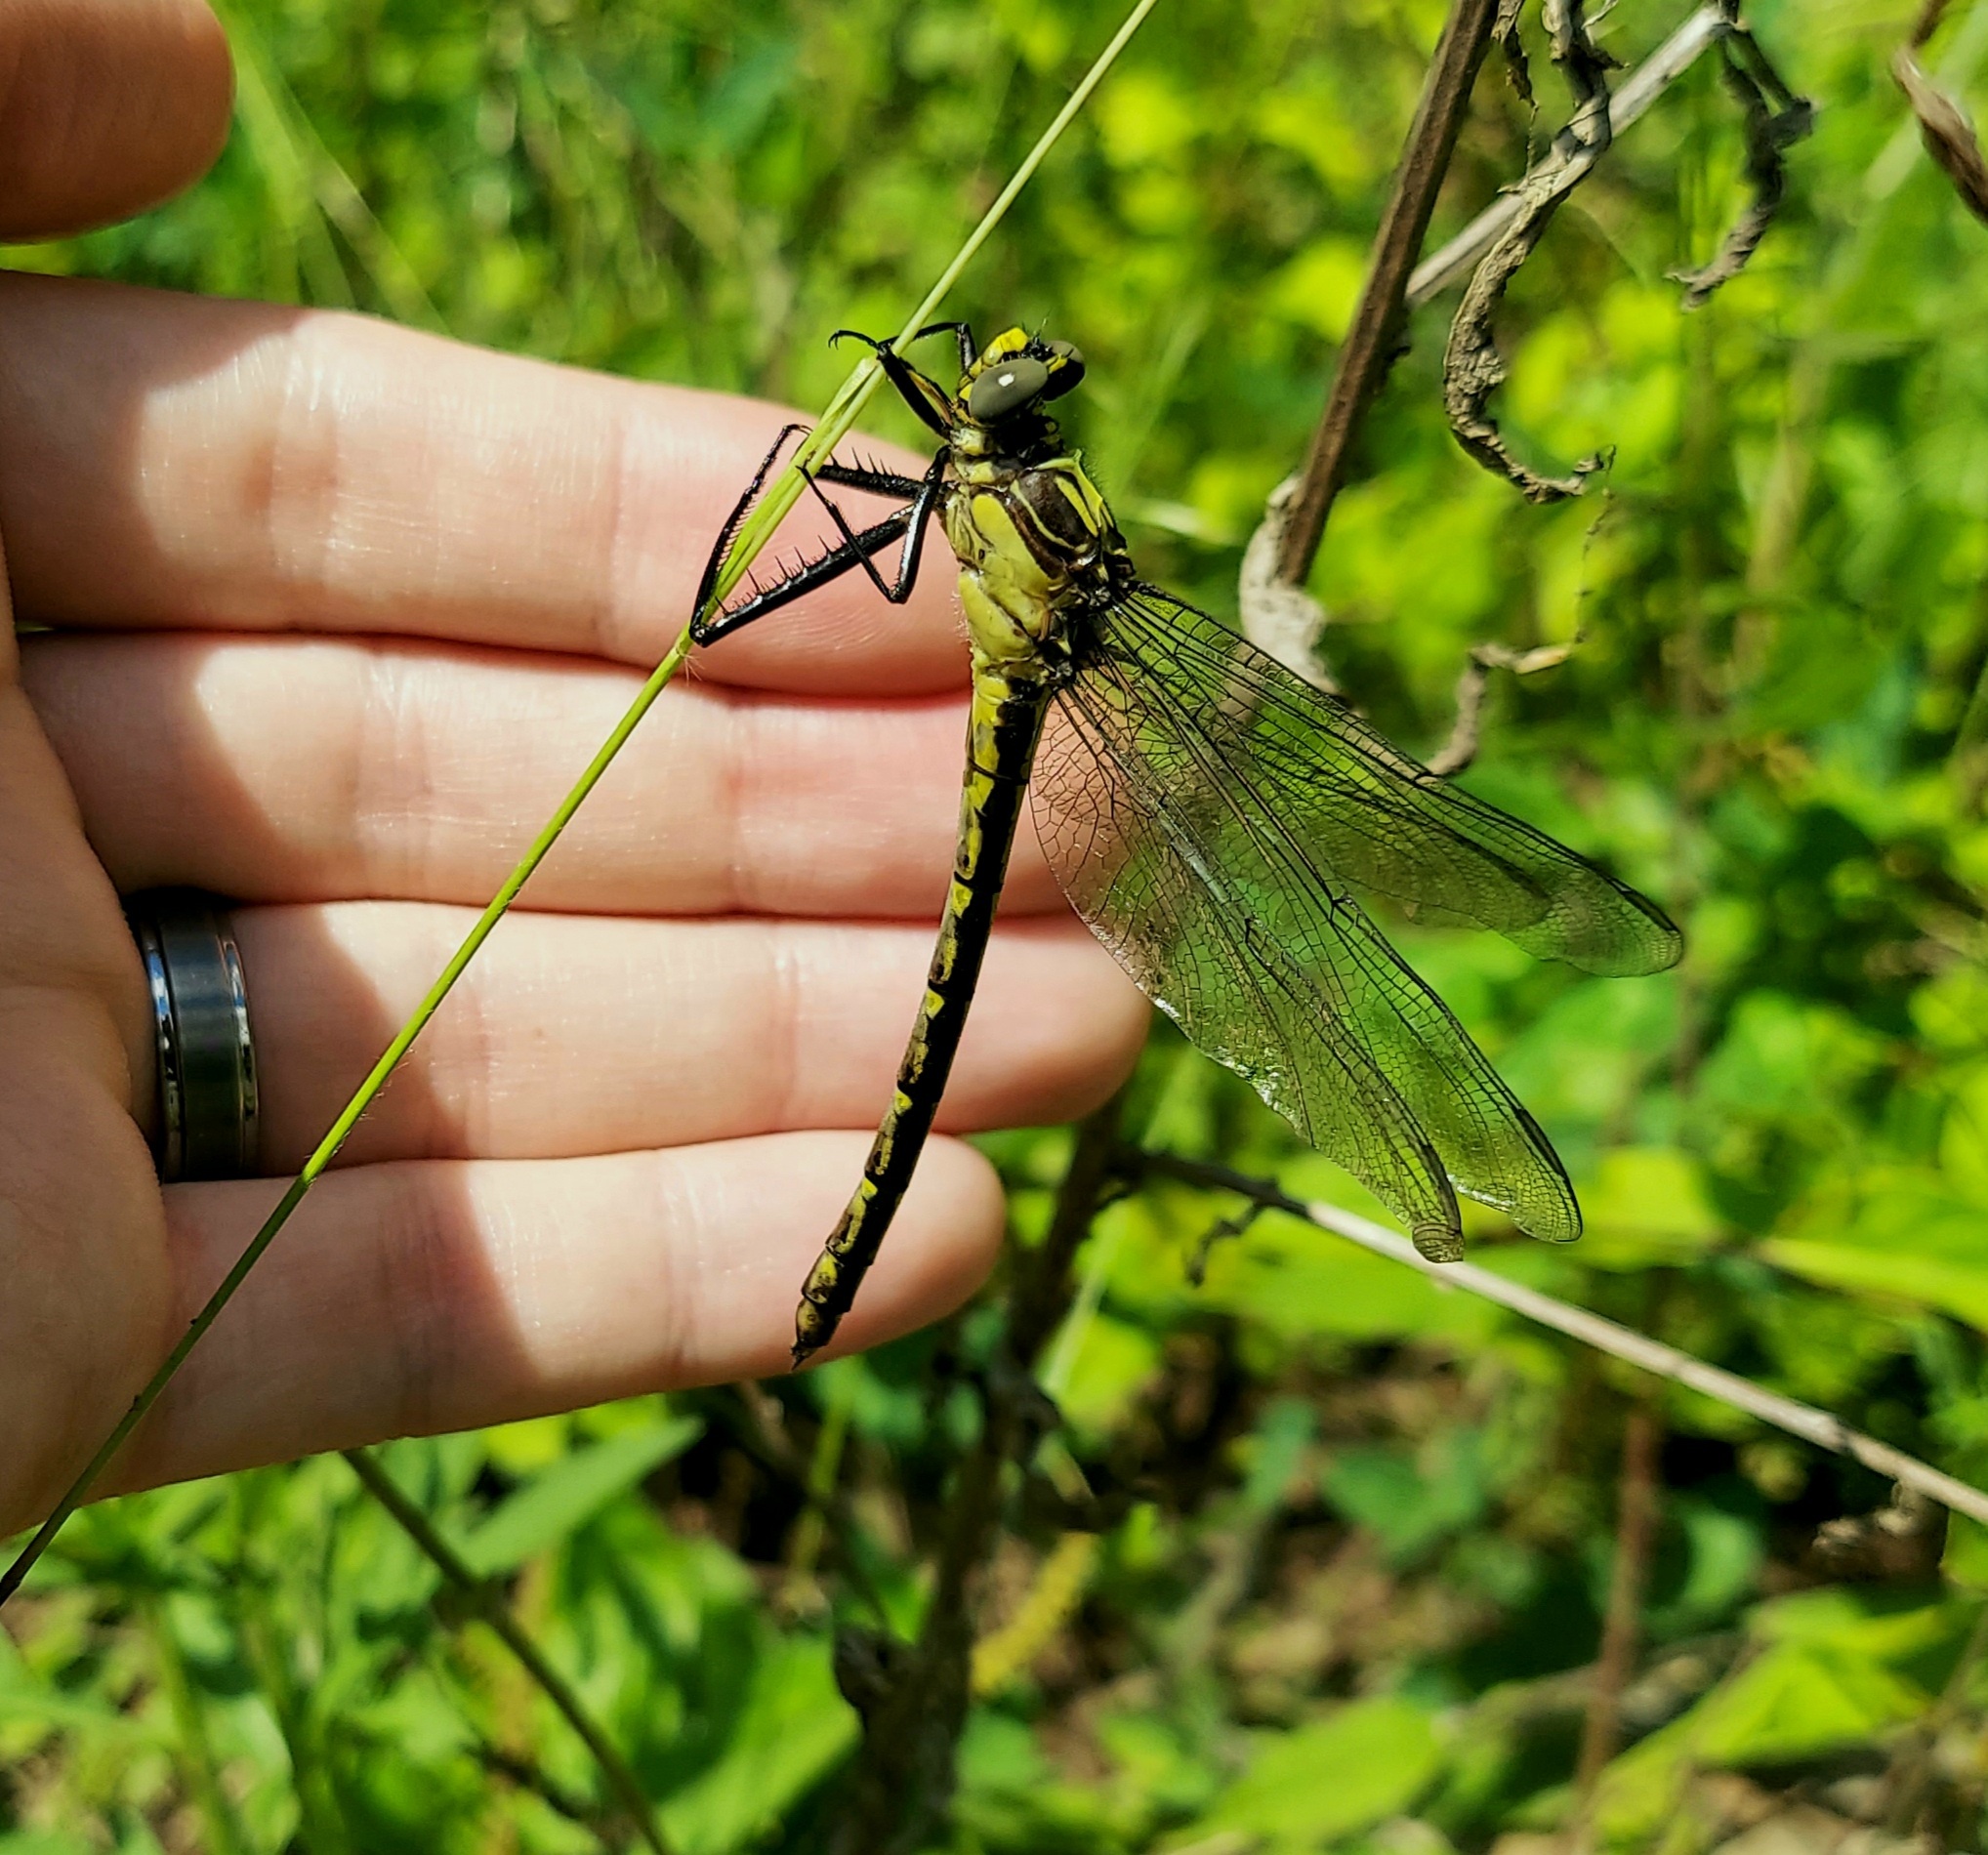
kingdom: Animalia
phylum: Arthropoda
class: Insecta
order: Odonata
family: Gomphidae
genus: Dromogomphus
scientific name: Dromogomphus spinosus
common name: Black-shouldered spinyleg
